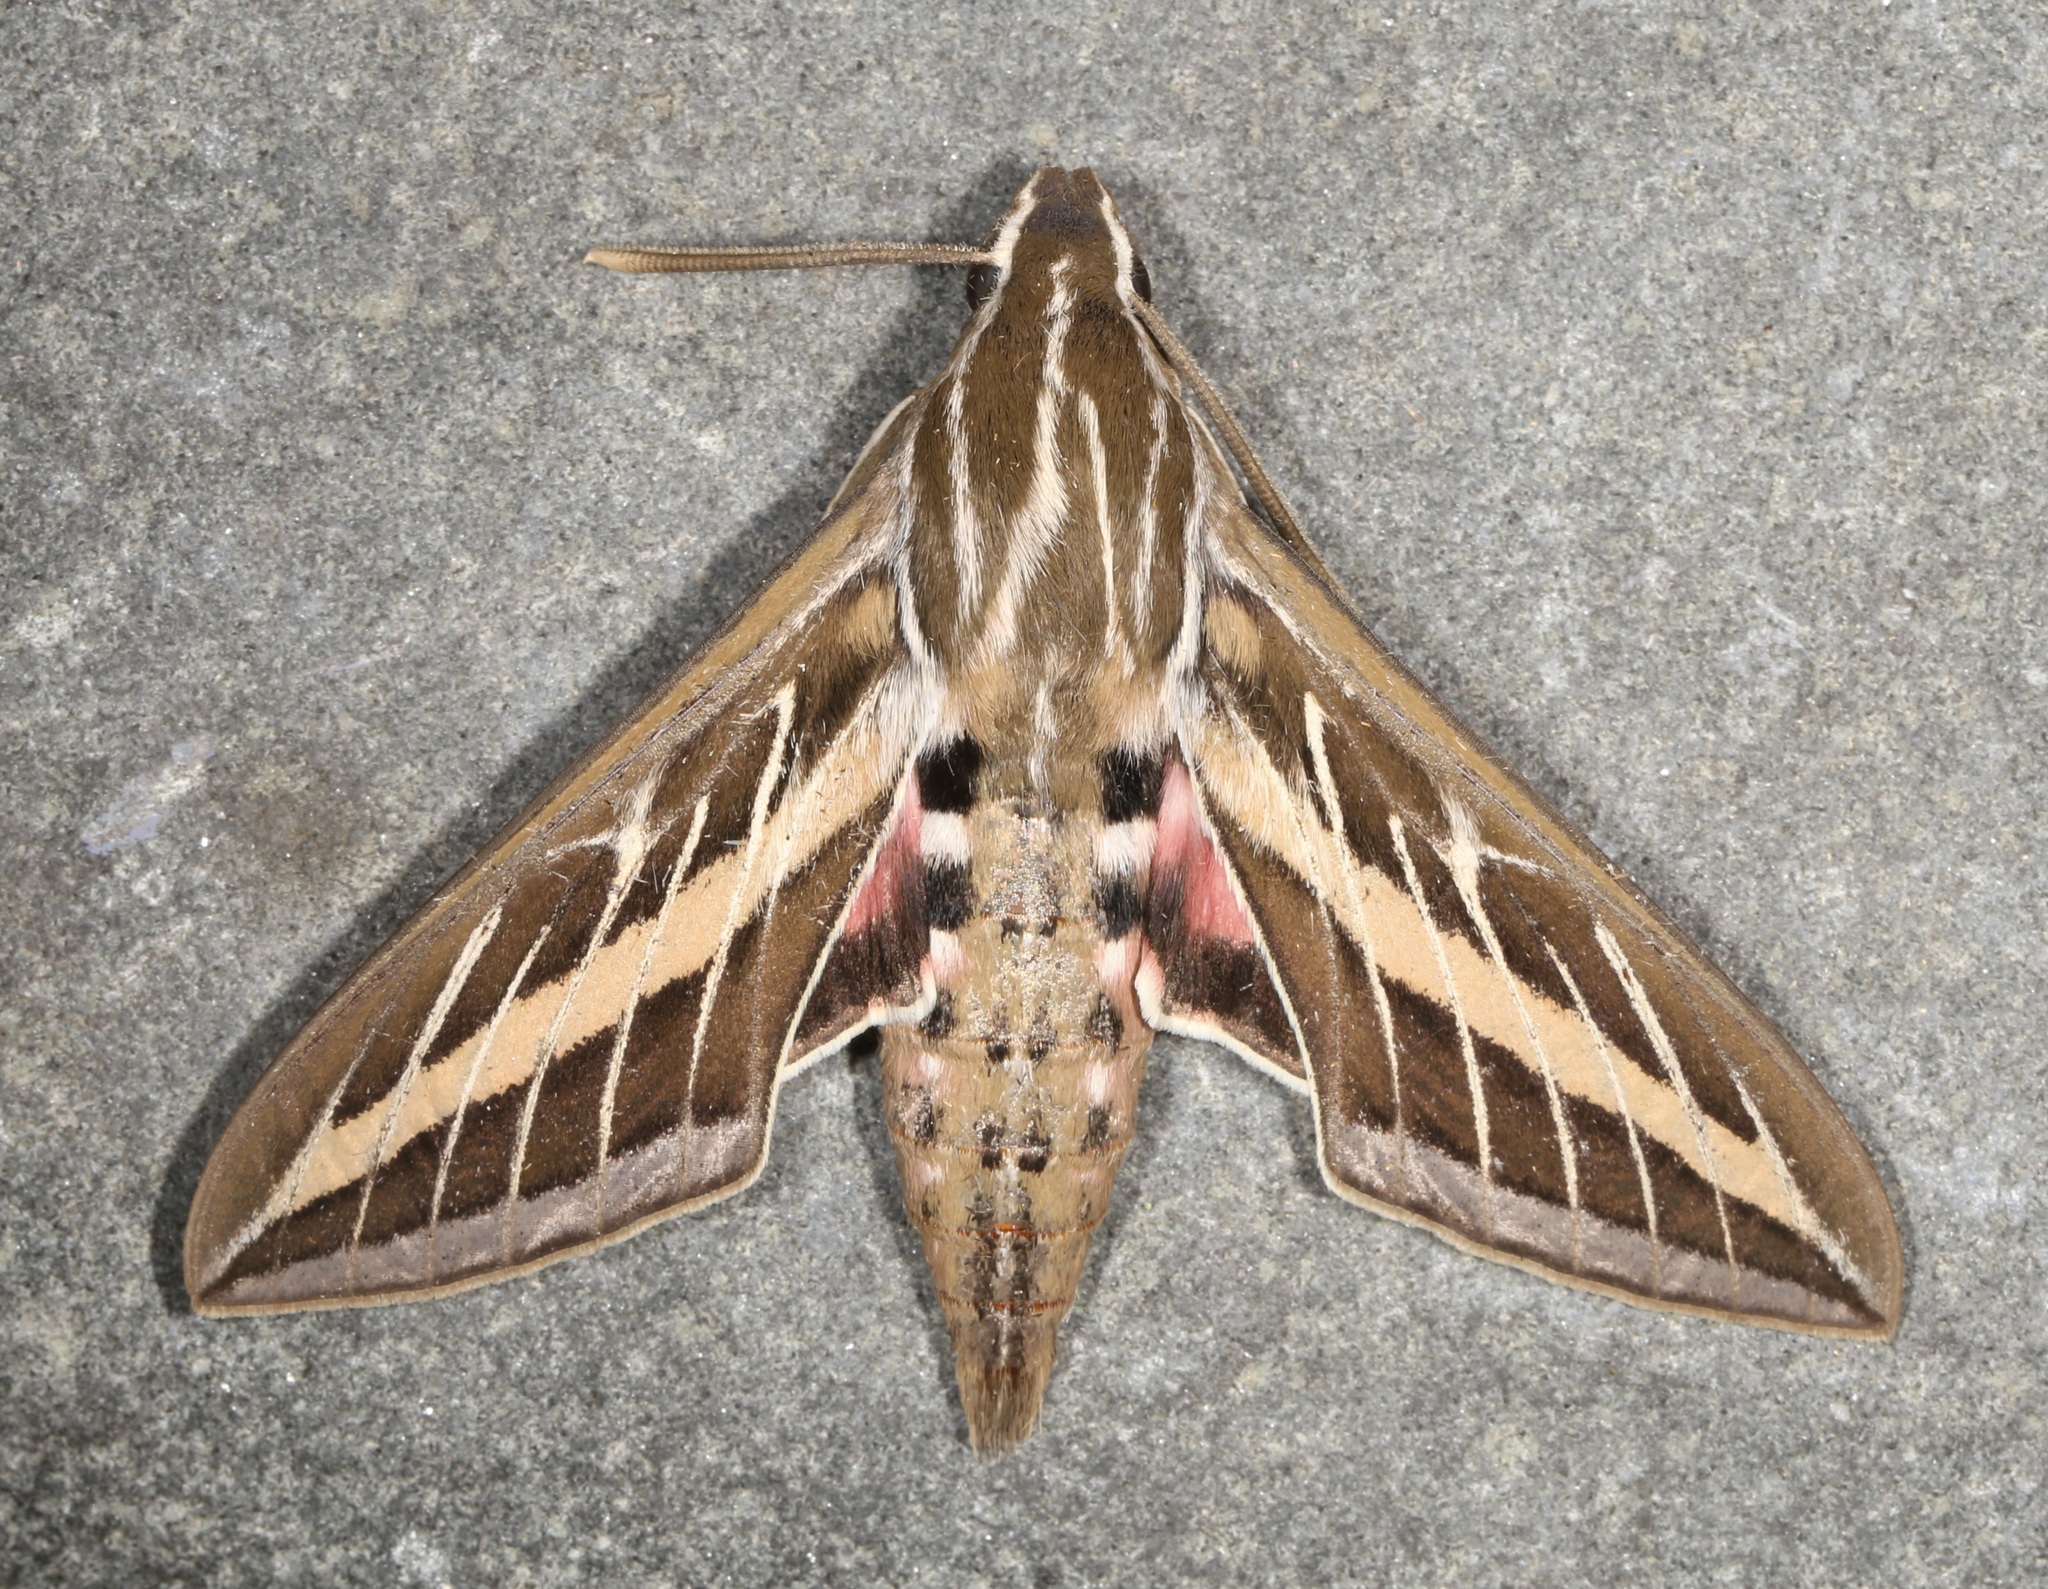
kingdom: Animalia
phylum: Arthropoda
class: Insecta
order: Lepidoptera
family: Sphingidae
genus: Hyles
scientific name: Hyles lineata
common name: White-lined sphinx
